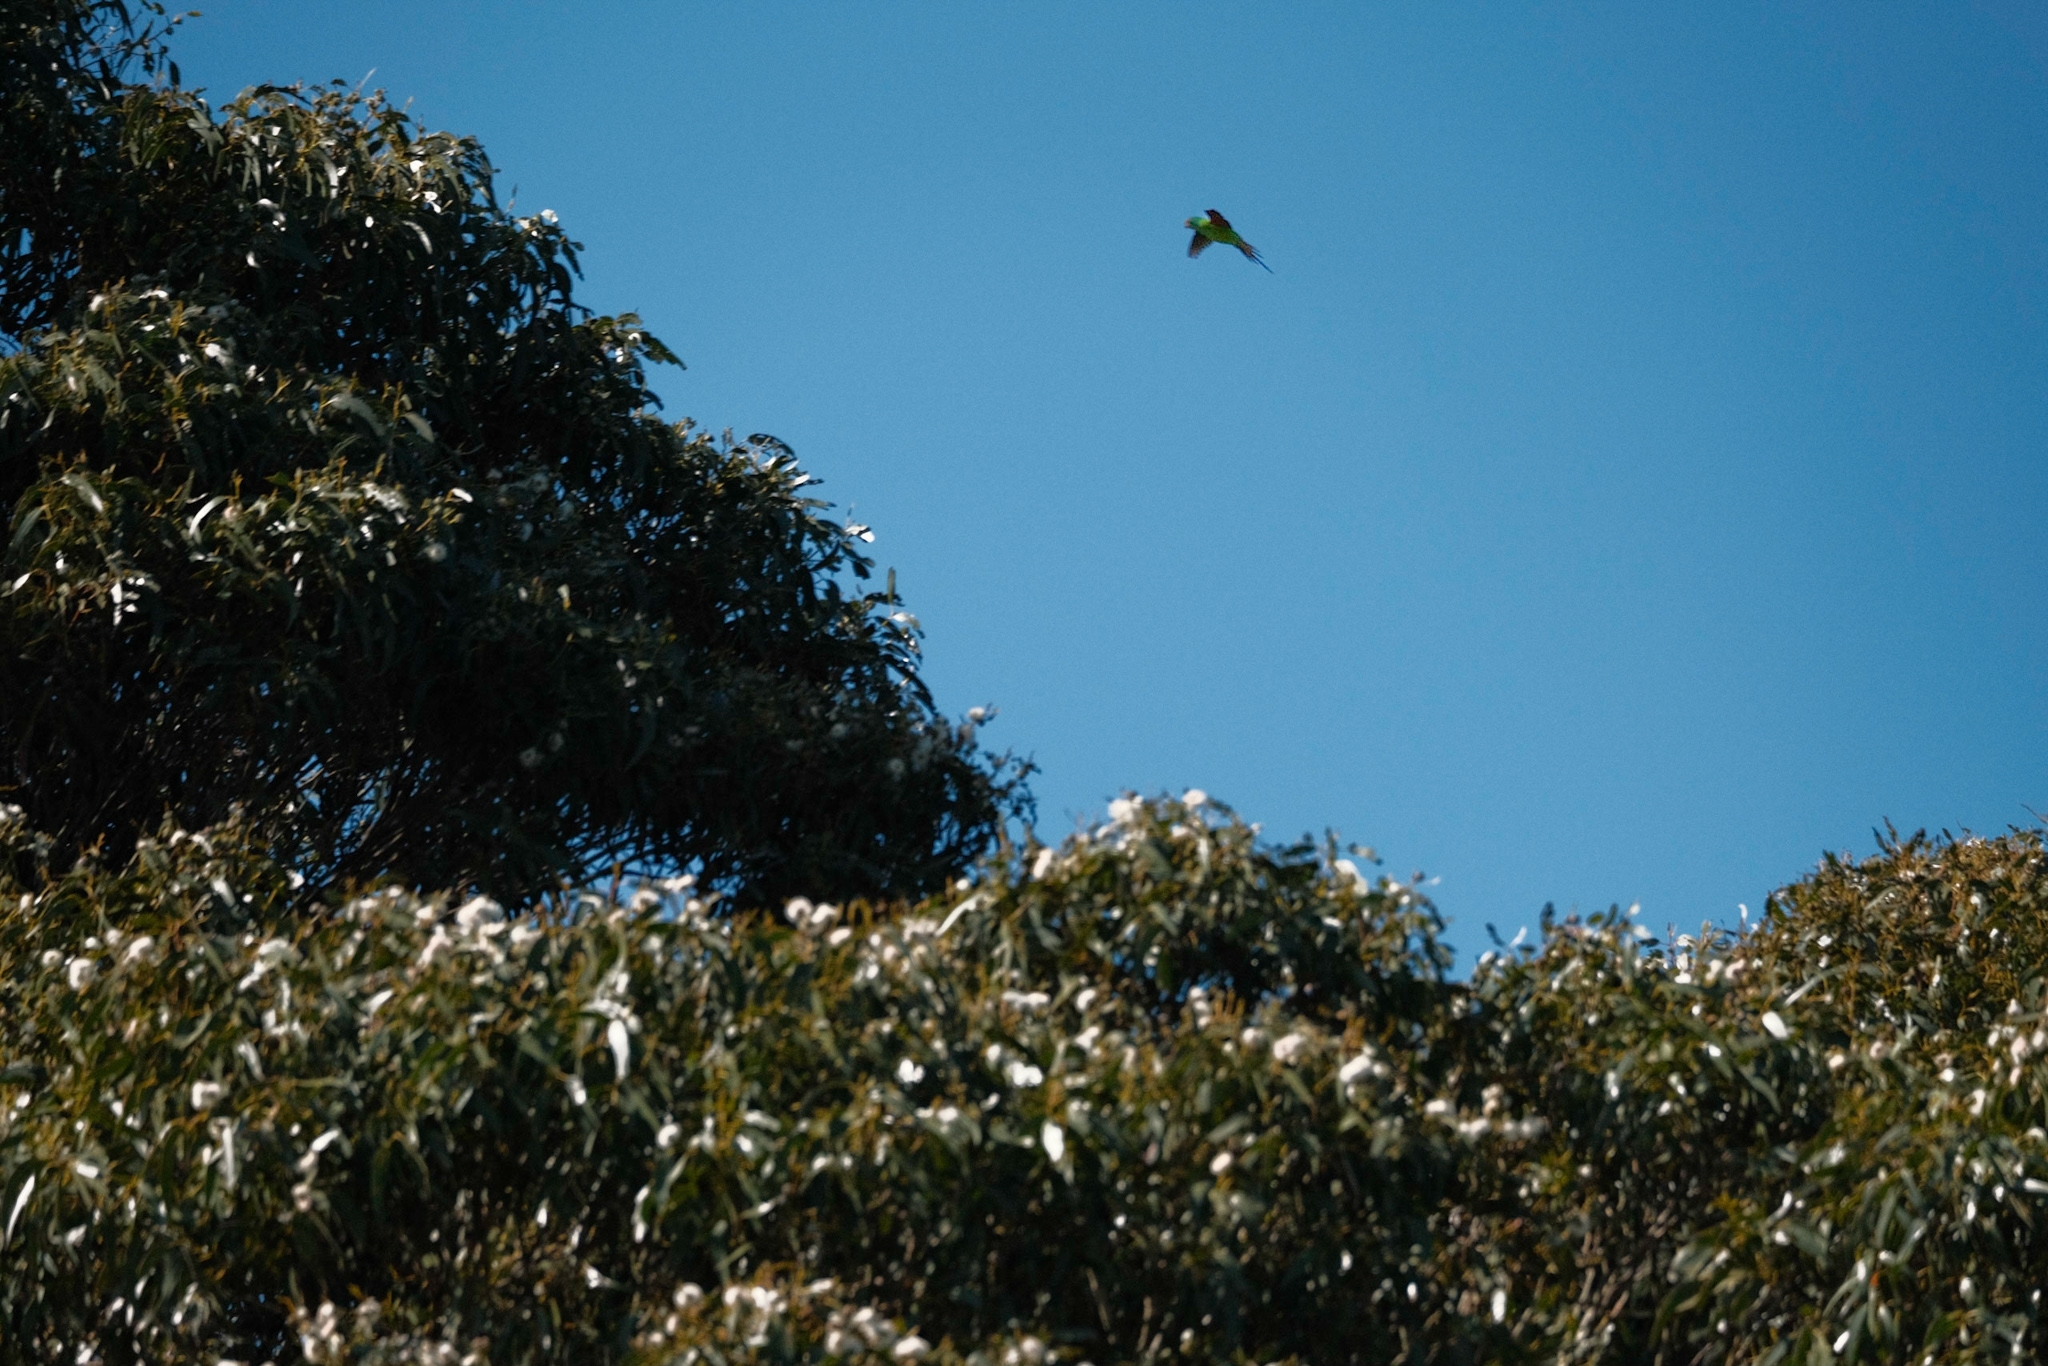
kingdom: Animalia
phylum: Chordata
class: Aves
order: Psittaciformes
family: Psittacidae
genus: Lathamus
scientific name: Lathamus discolor
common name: Swift parrot
